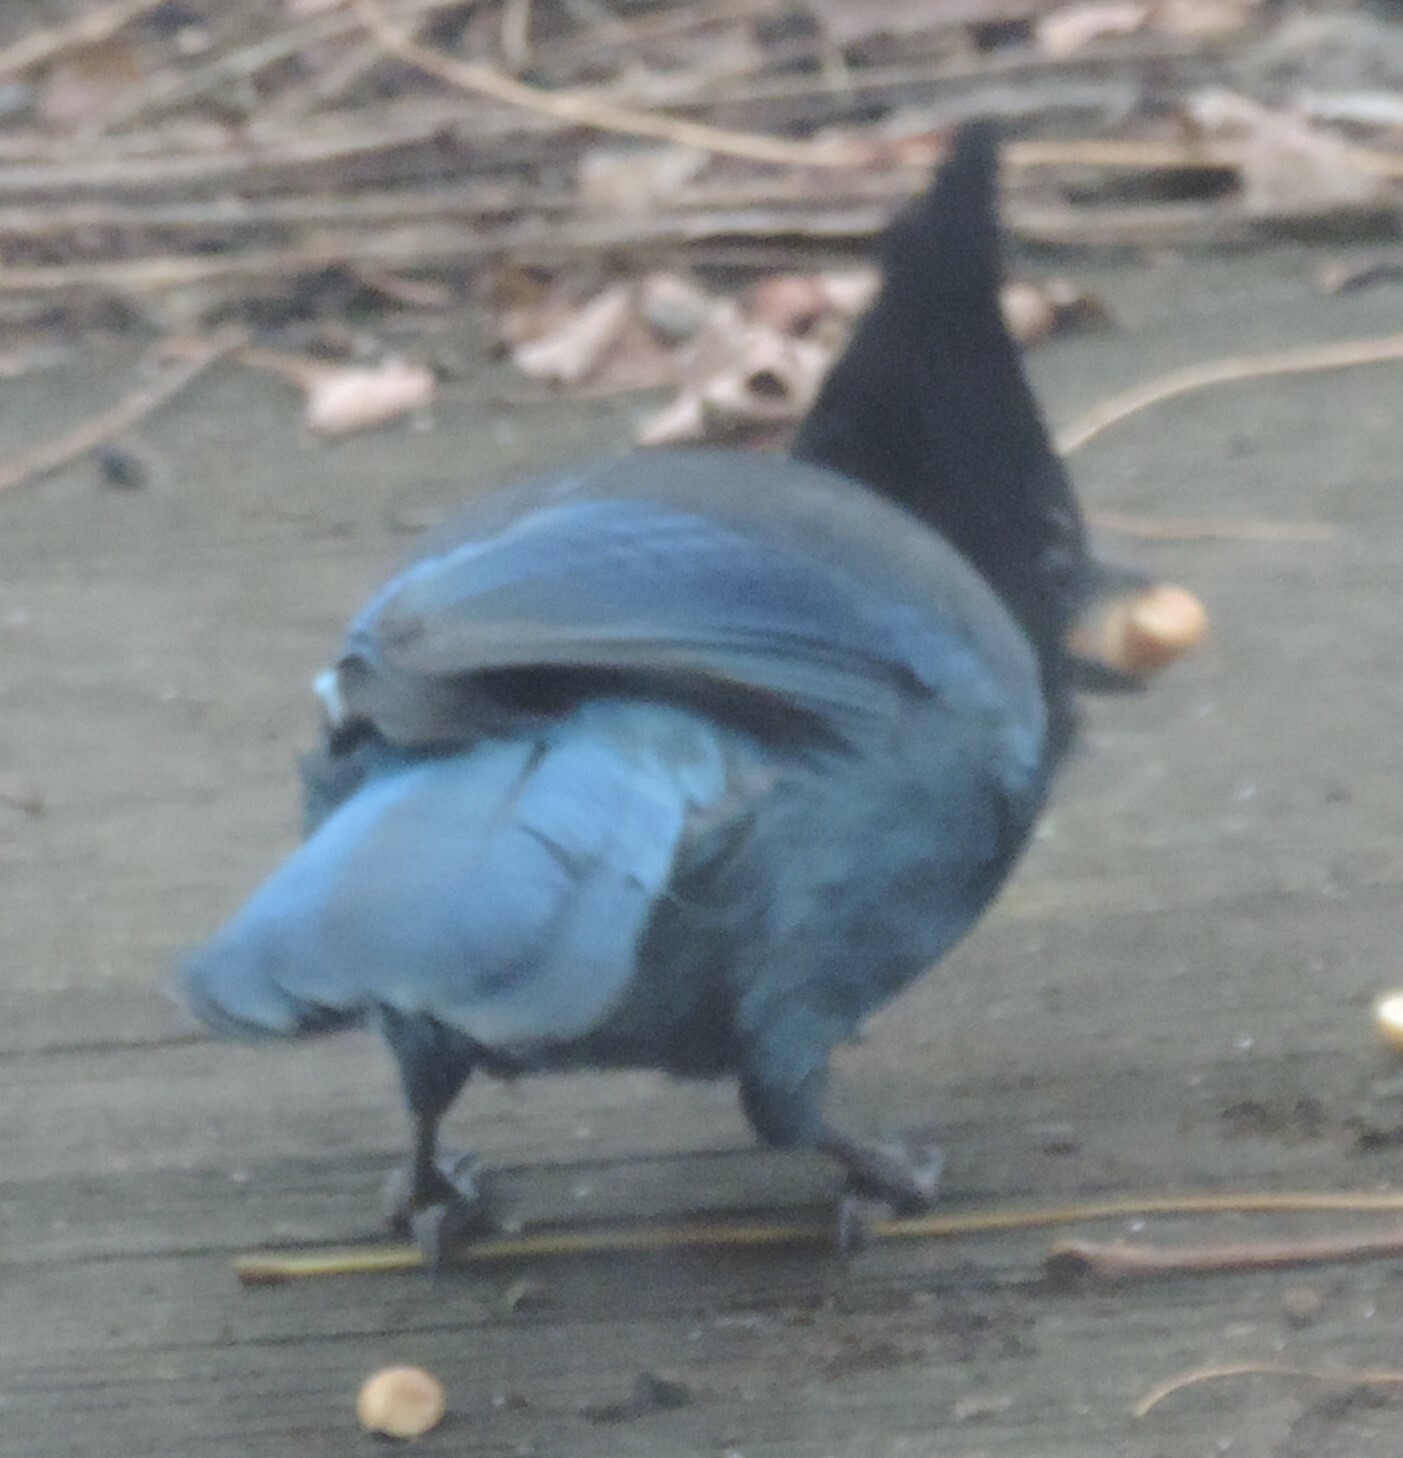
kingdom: Animalia
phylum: Chordata
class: Aves
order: Passeriformes
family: Corvidae
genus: Cyanocitta
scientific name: Cyanocitta stelleri
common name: Steller's jay
